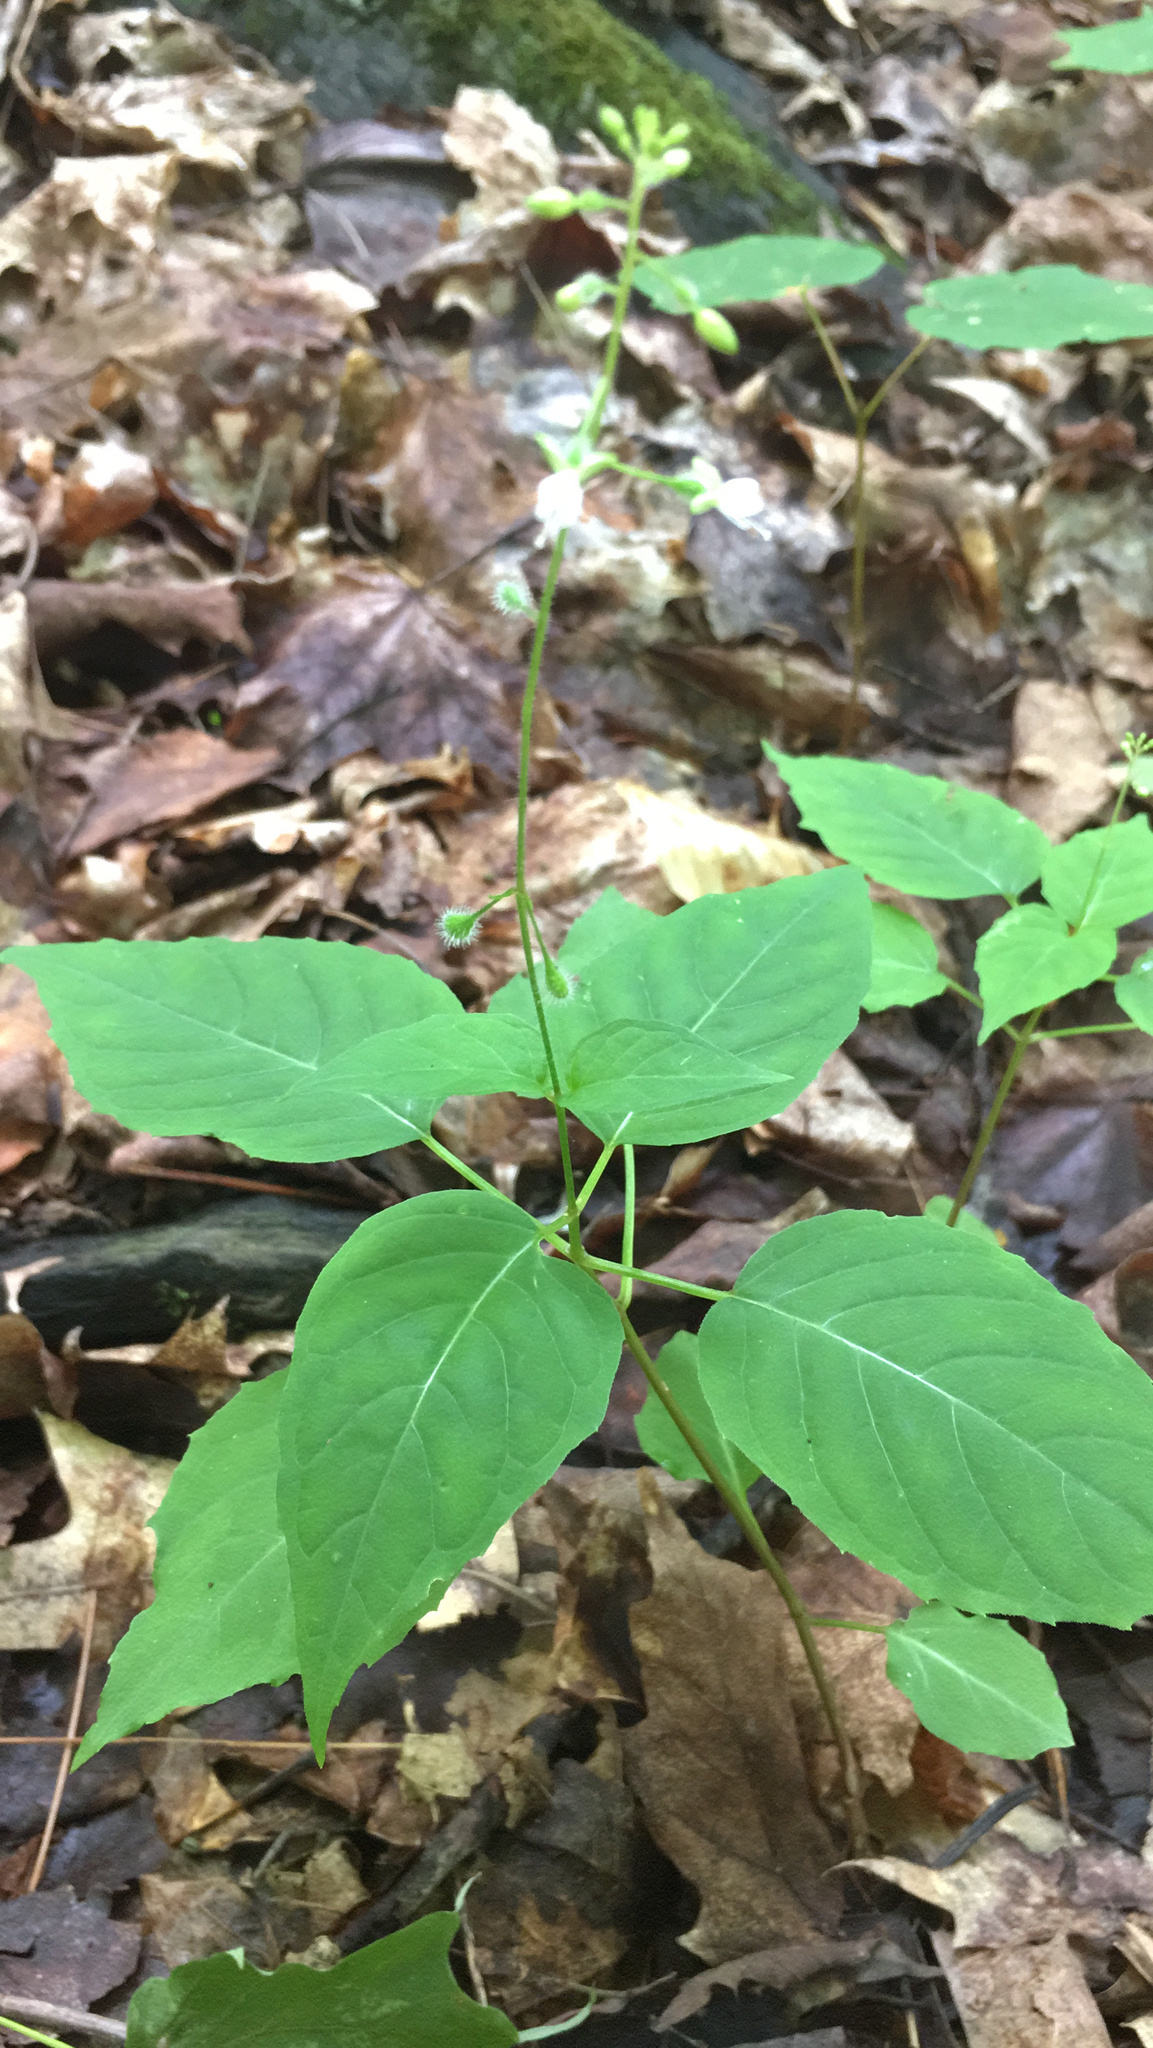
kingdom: Plantae
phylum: Tracheophyta
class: Magnoliopsida
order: Myrtales
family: Onagraceae
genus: Circaea
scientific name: Circaea canadensis
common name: Broad-leaved enchanter's nightshade
